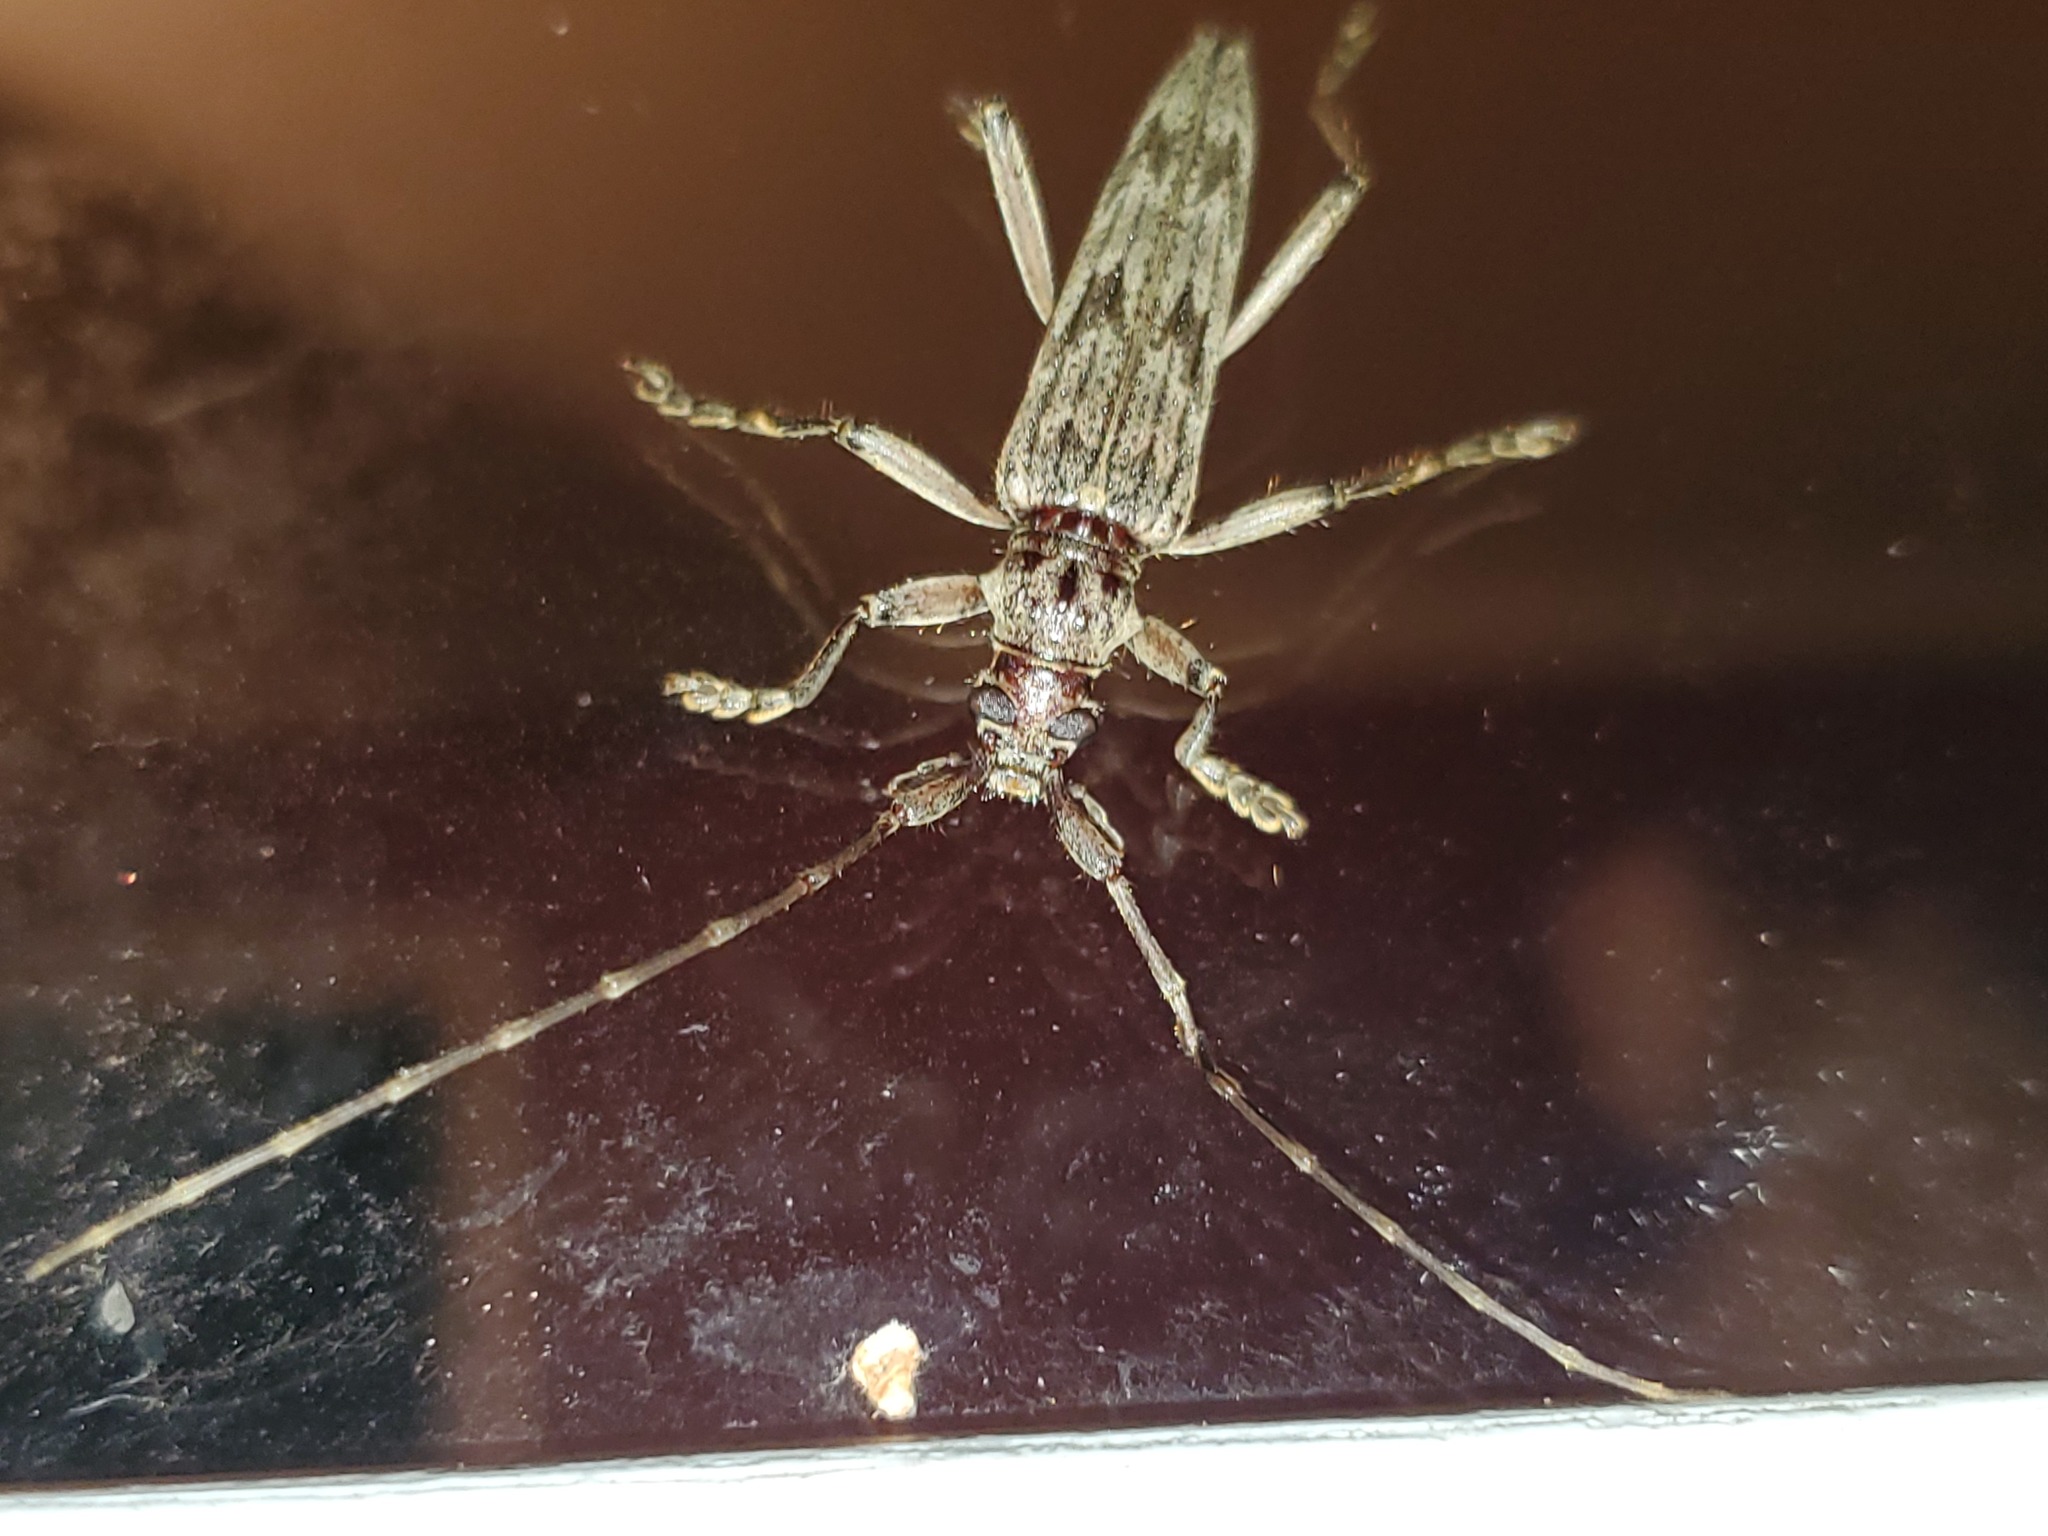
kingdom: Animalia
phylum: Arthropoda
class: Insecta
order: Coleoptera
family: Cerambycidae
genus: Elytrimitatrix
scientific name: Elytrimitatrix undata
